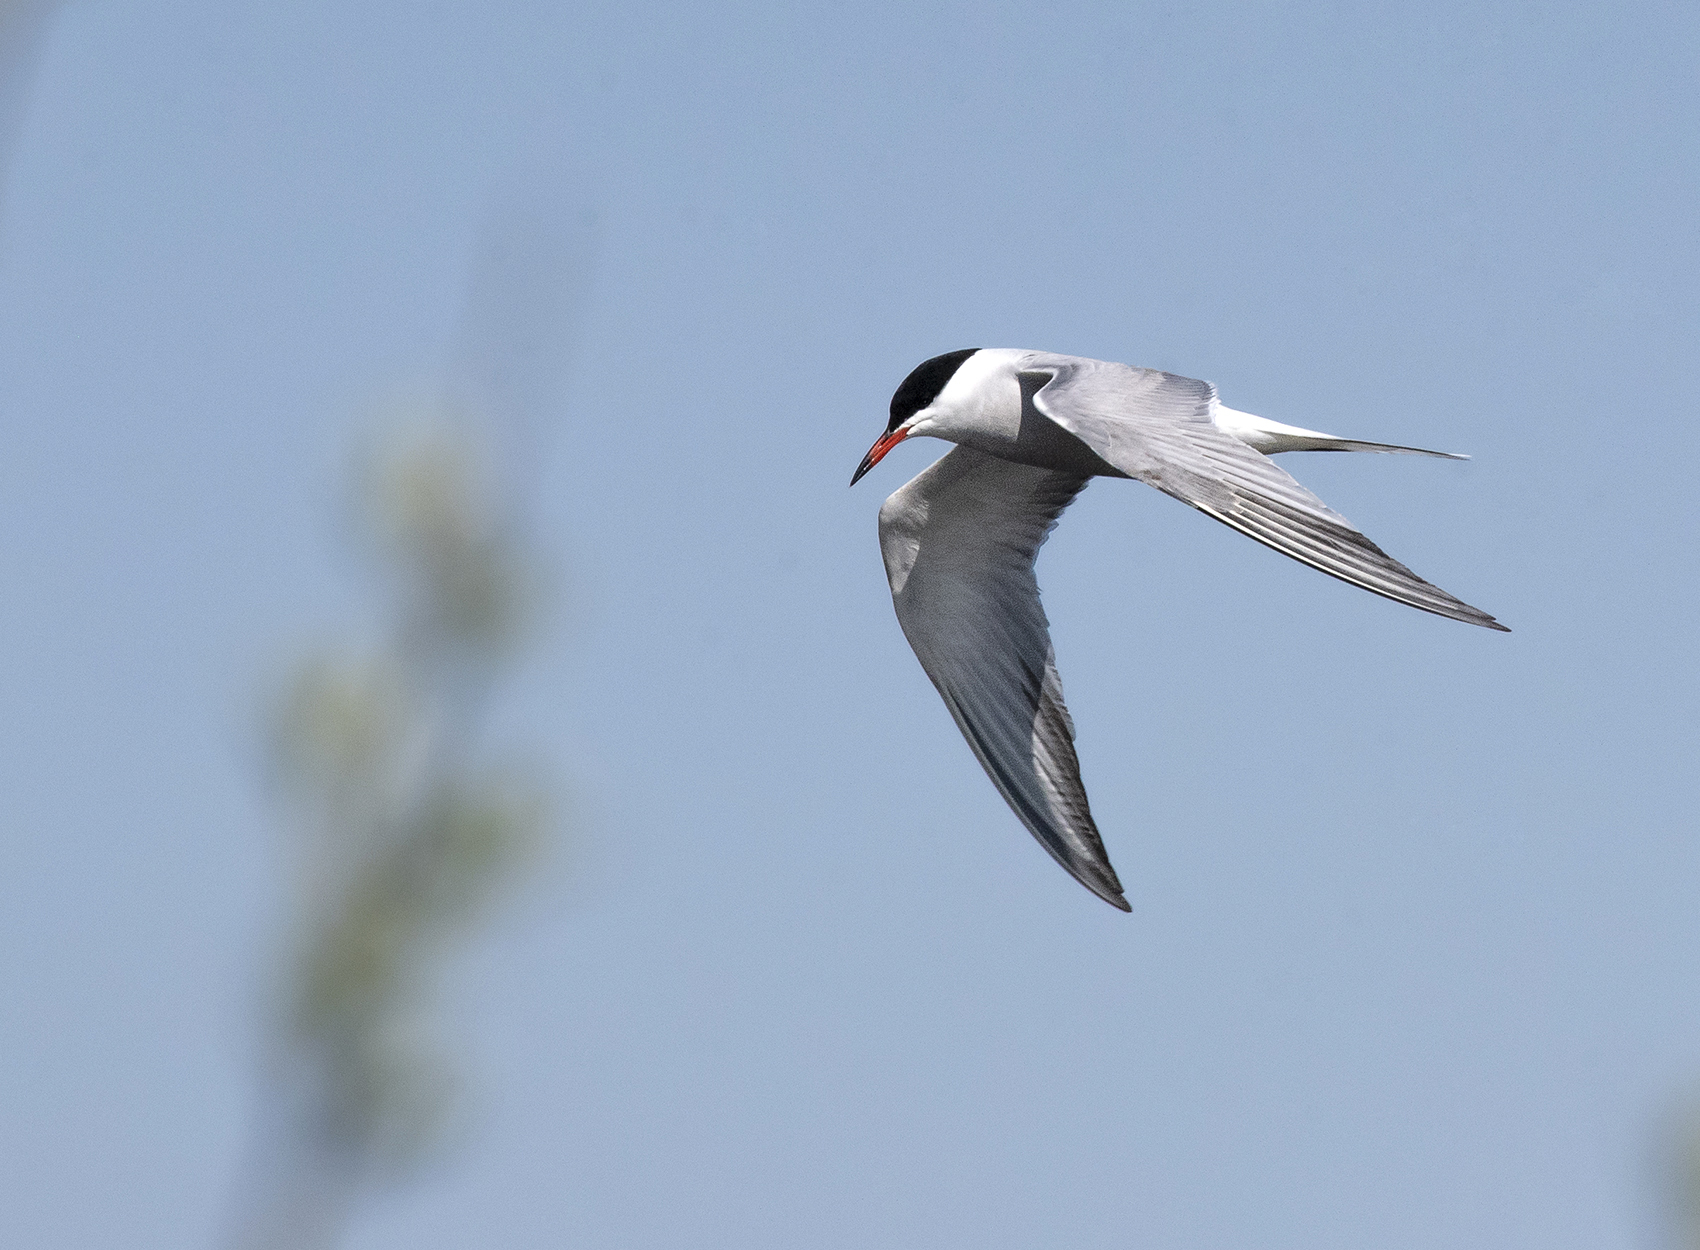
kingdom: Animalia
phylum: Chordata
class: Aves
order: Charadriiformes
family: Laridae
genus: Sterna
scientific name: Sterna hirundo
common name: Common tern
